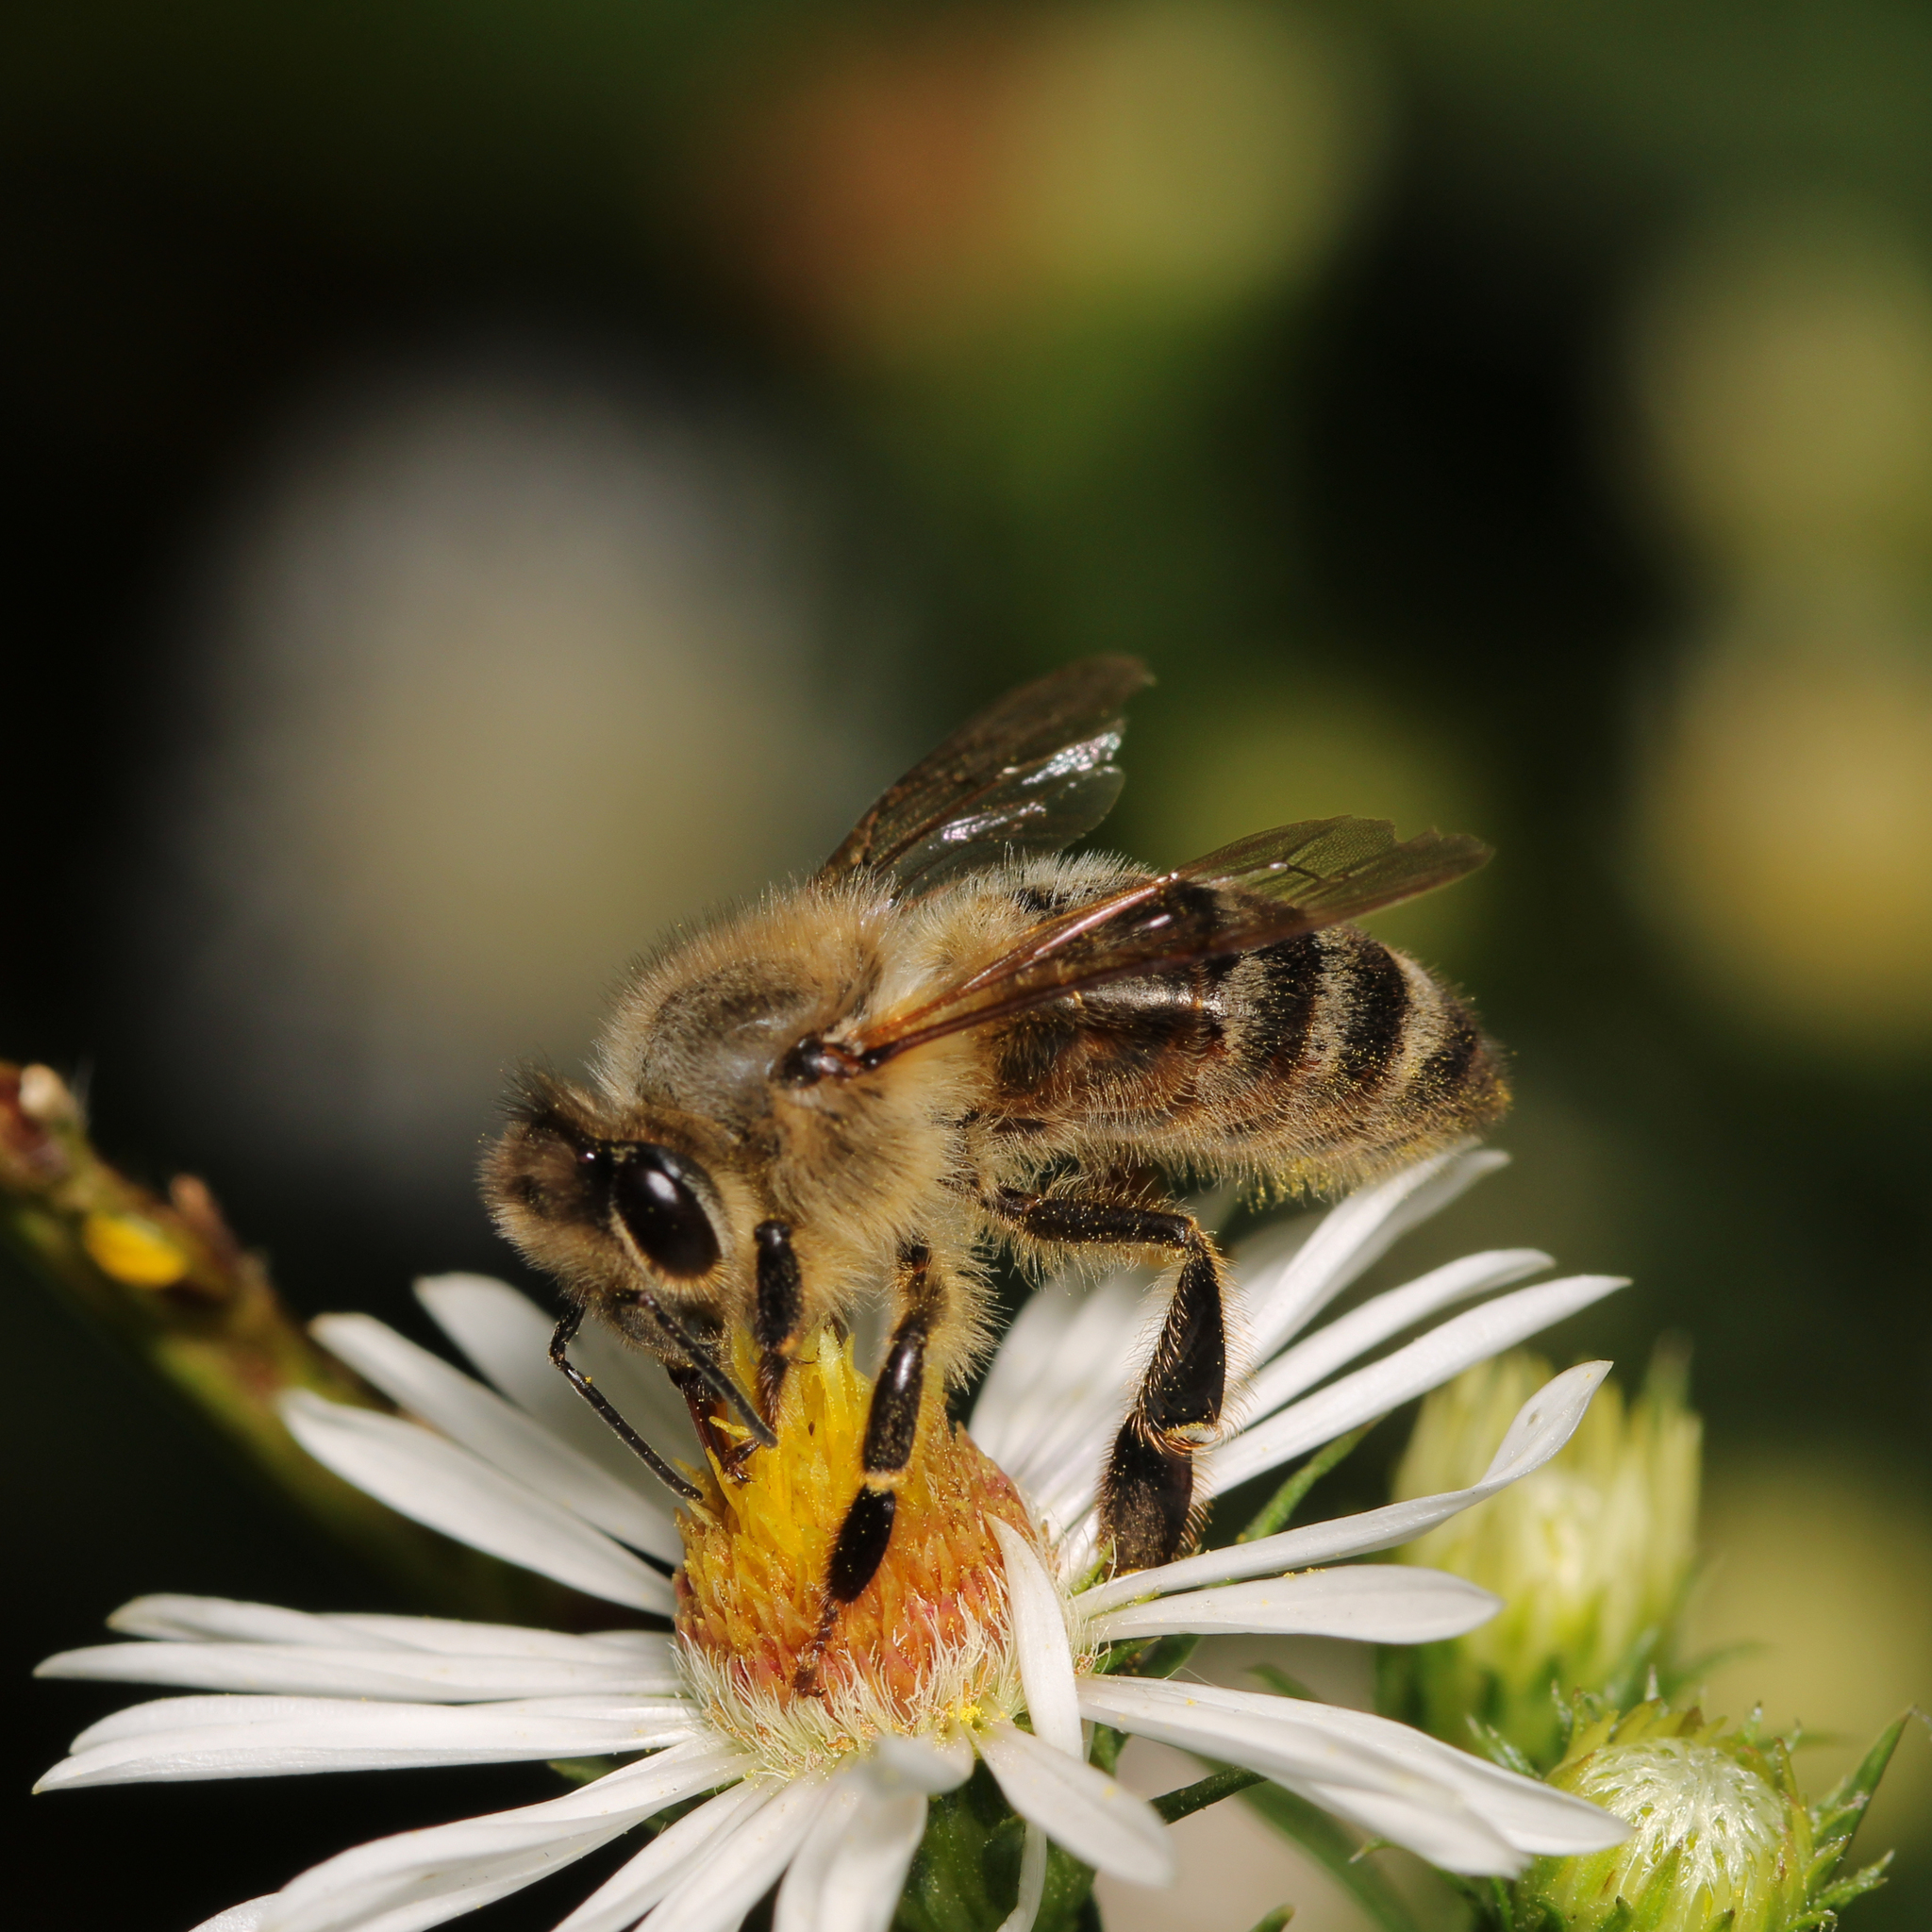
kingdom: Animalia
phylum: Arthropoda
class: Insecta
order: Hymenoptera
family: Apidae
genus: Apis
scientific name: Apis mellifera
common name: Honey bee
